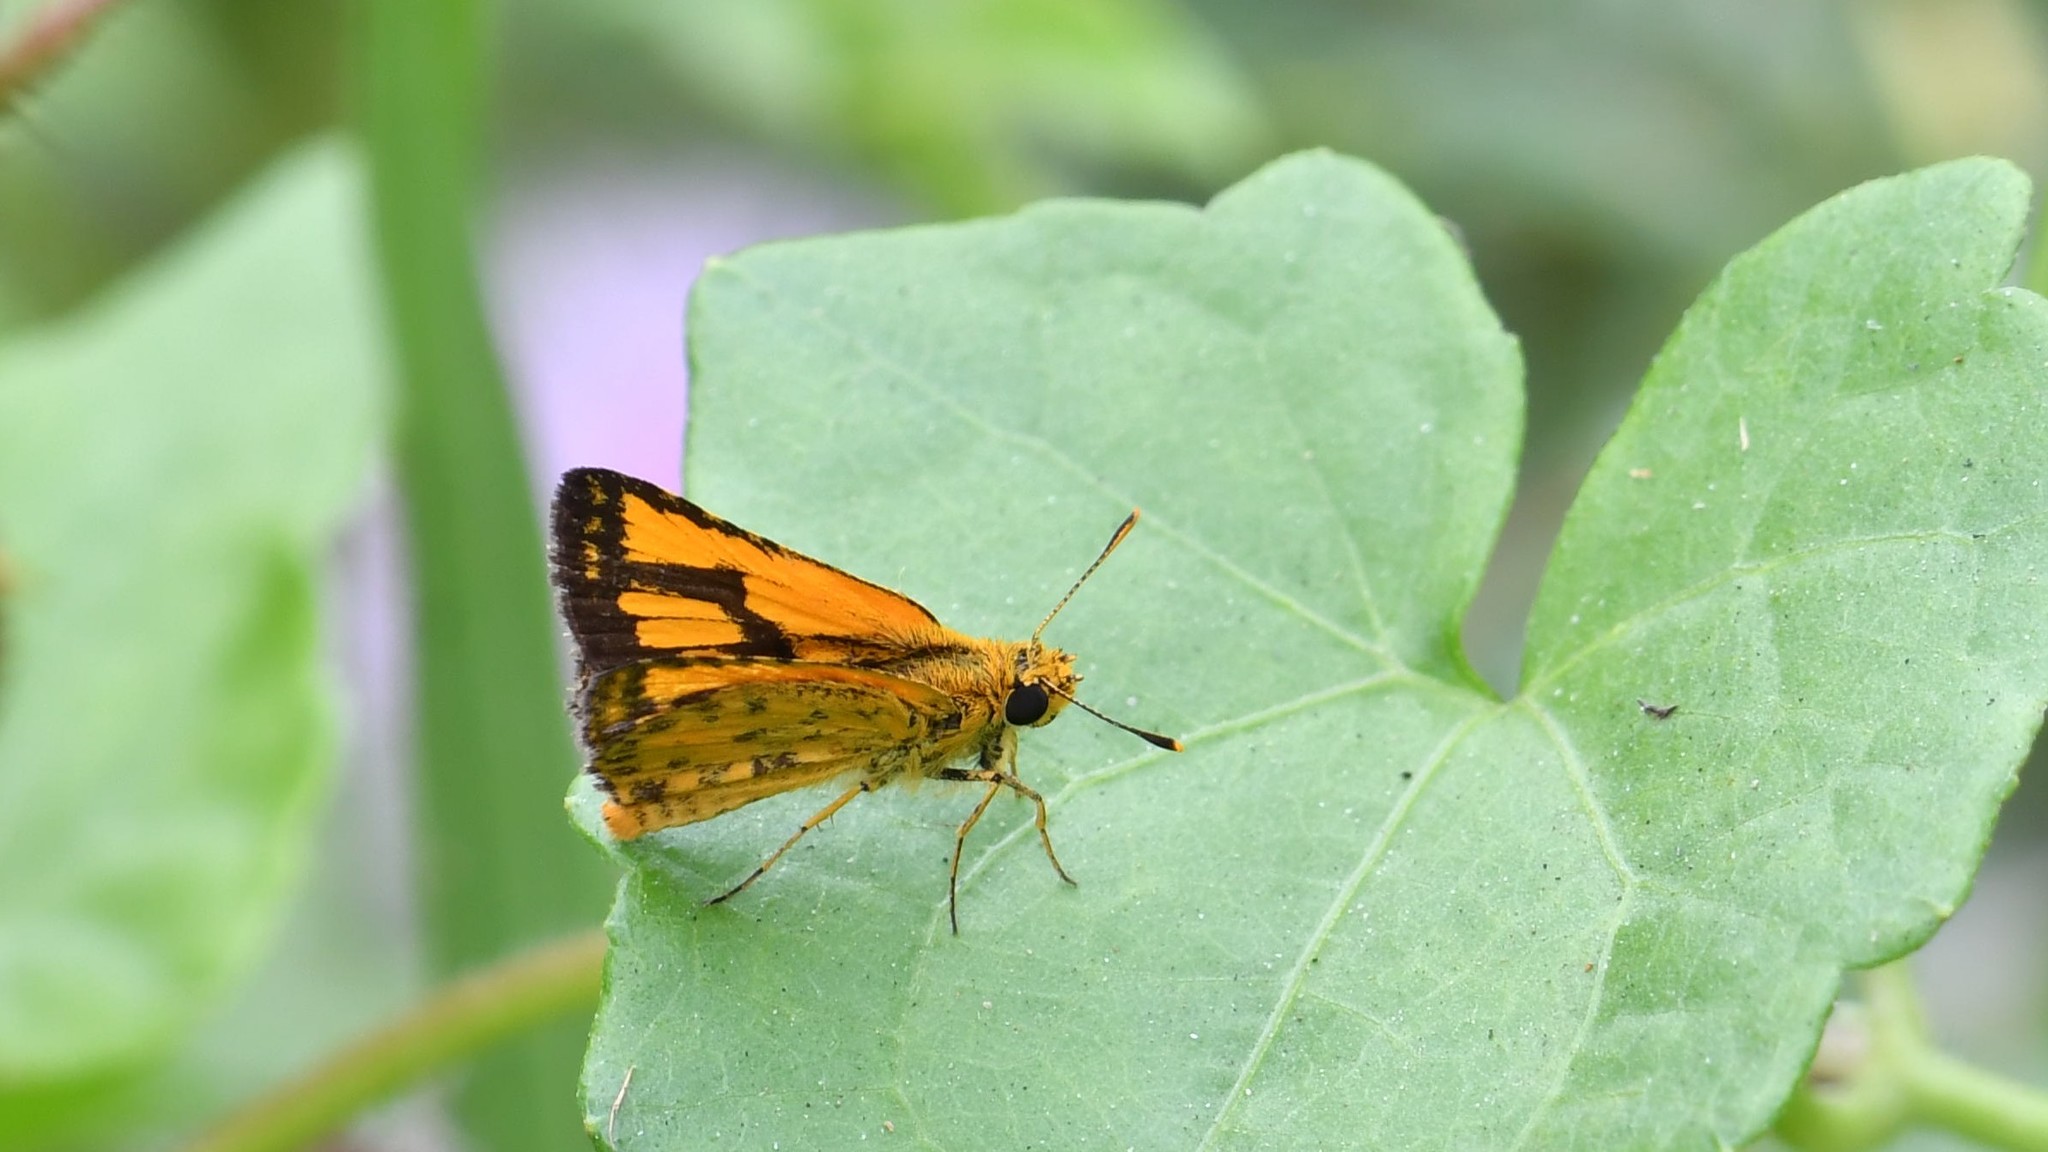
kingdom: Animalia
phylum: Arthropoda
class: Insecta
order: Lepidoptera
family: Hesperiidae
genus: Ampittia
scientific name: Ampittia dioscorides
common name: Common bush hopper
